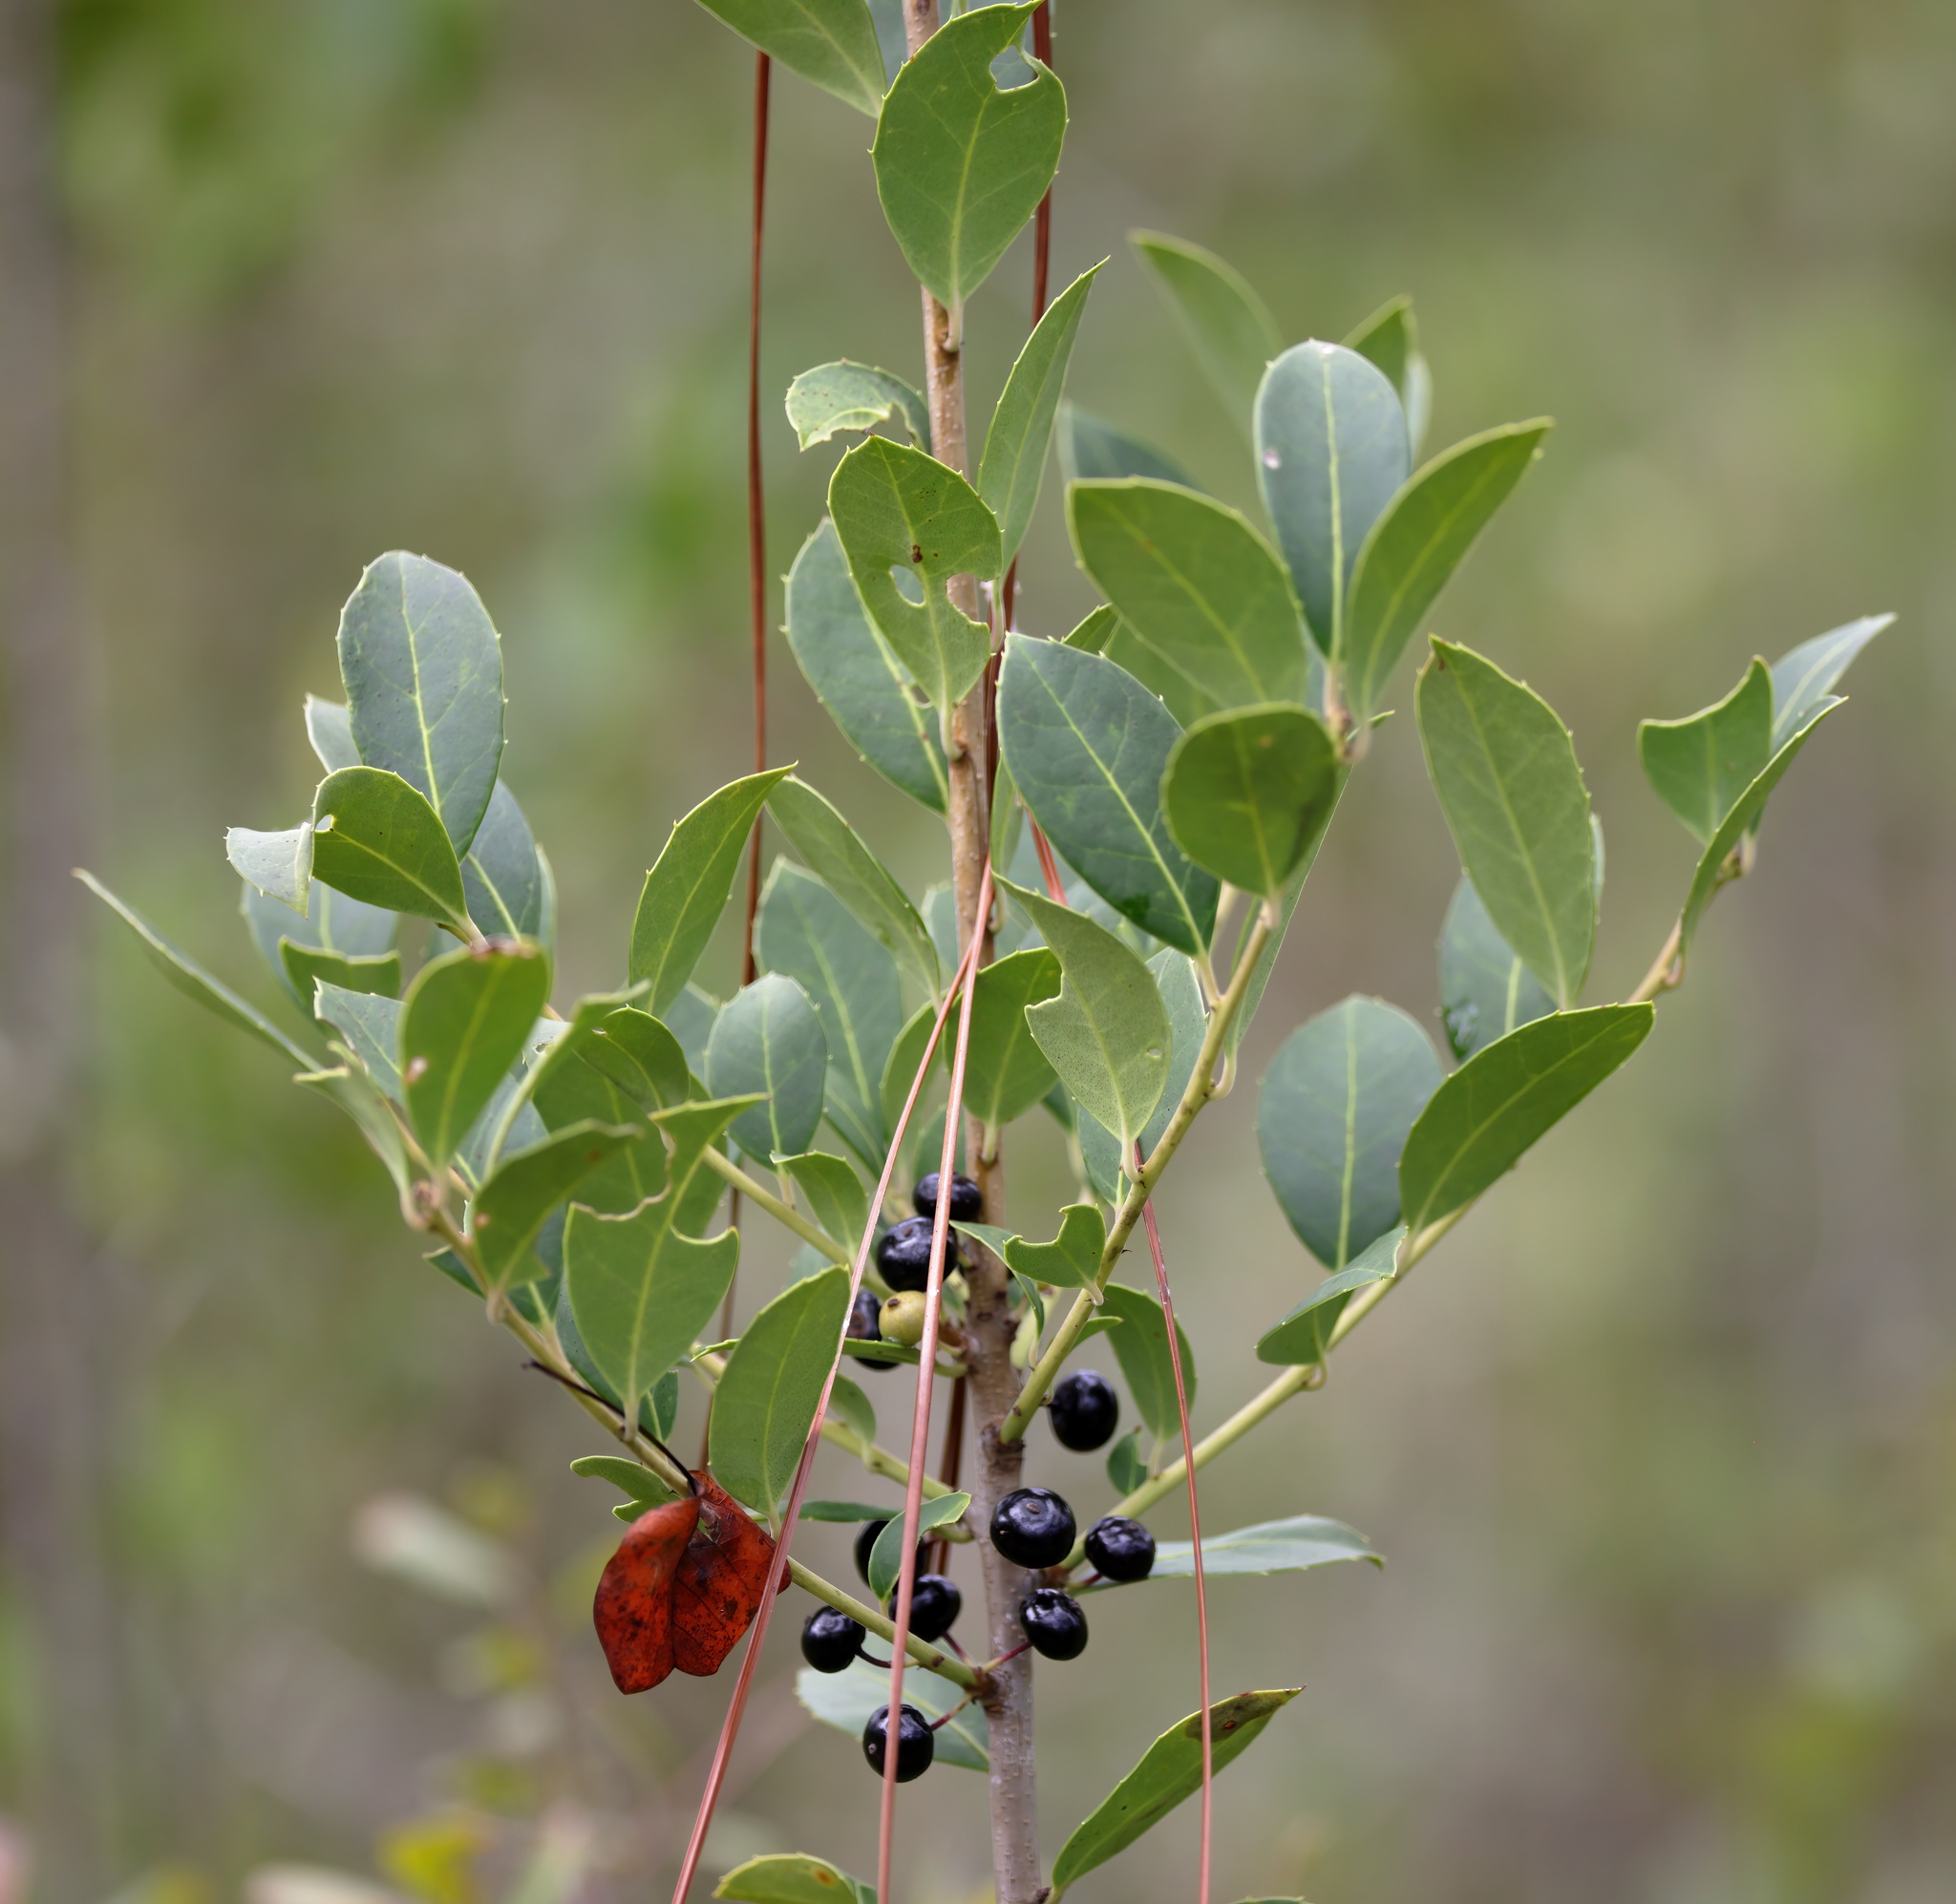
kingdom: Plantae
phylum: Tracheophyta
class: Magnoliopsida
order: Aquifoliales
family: Aquifoliaceae
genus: Ilex
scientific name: Ilex coriacea
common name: Sweet gallberry
